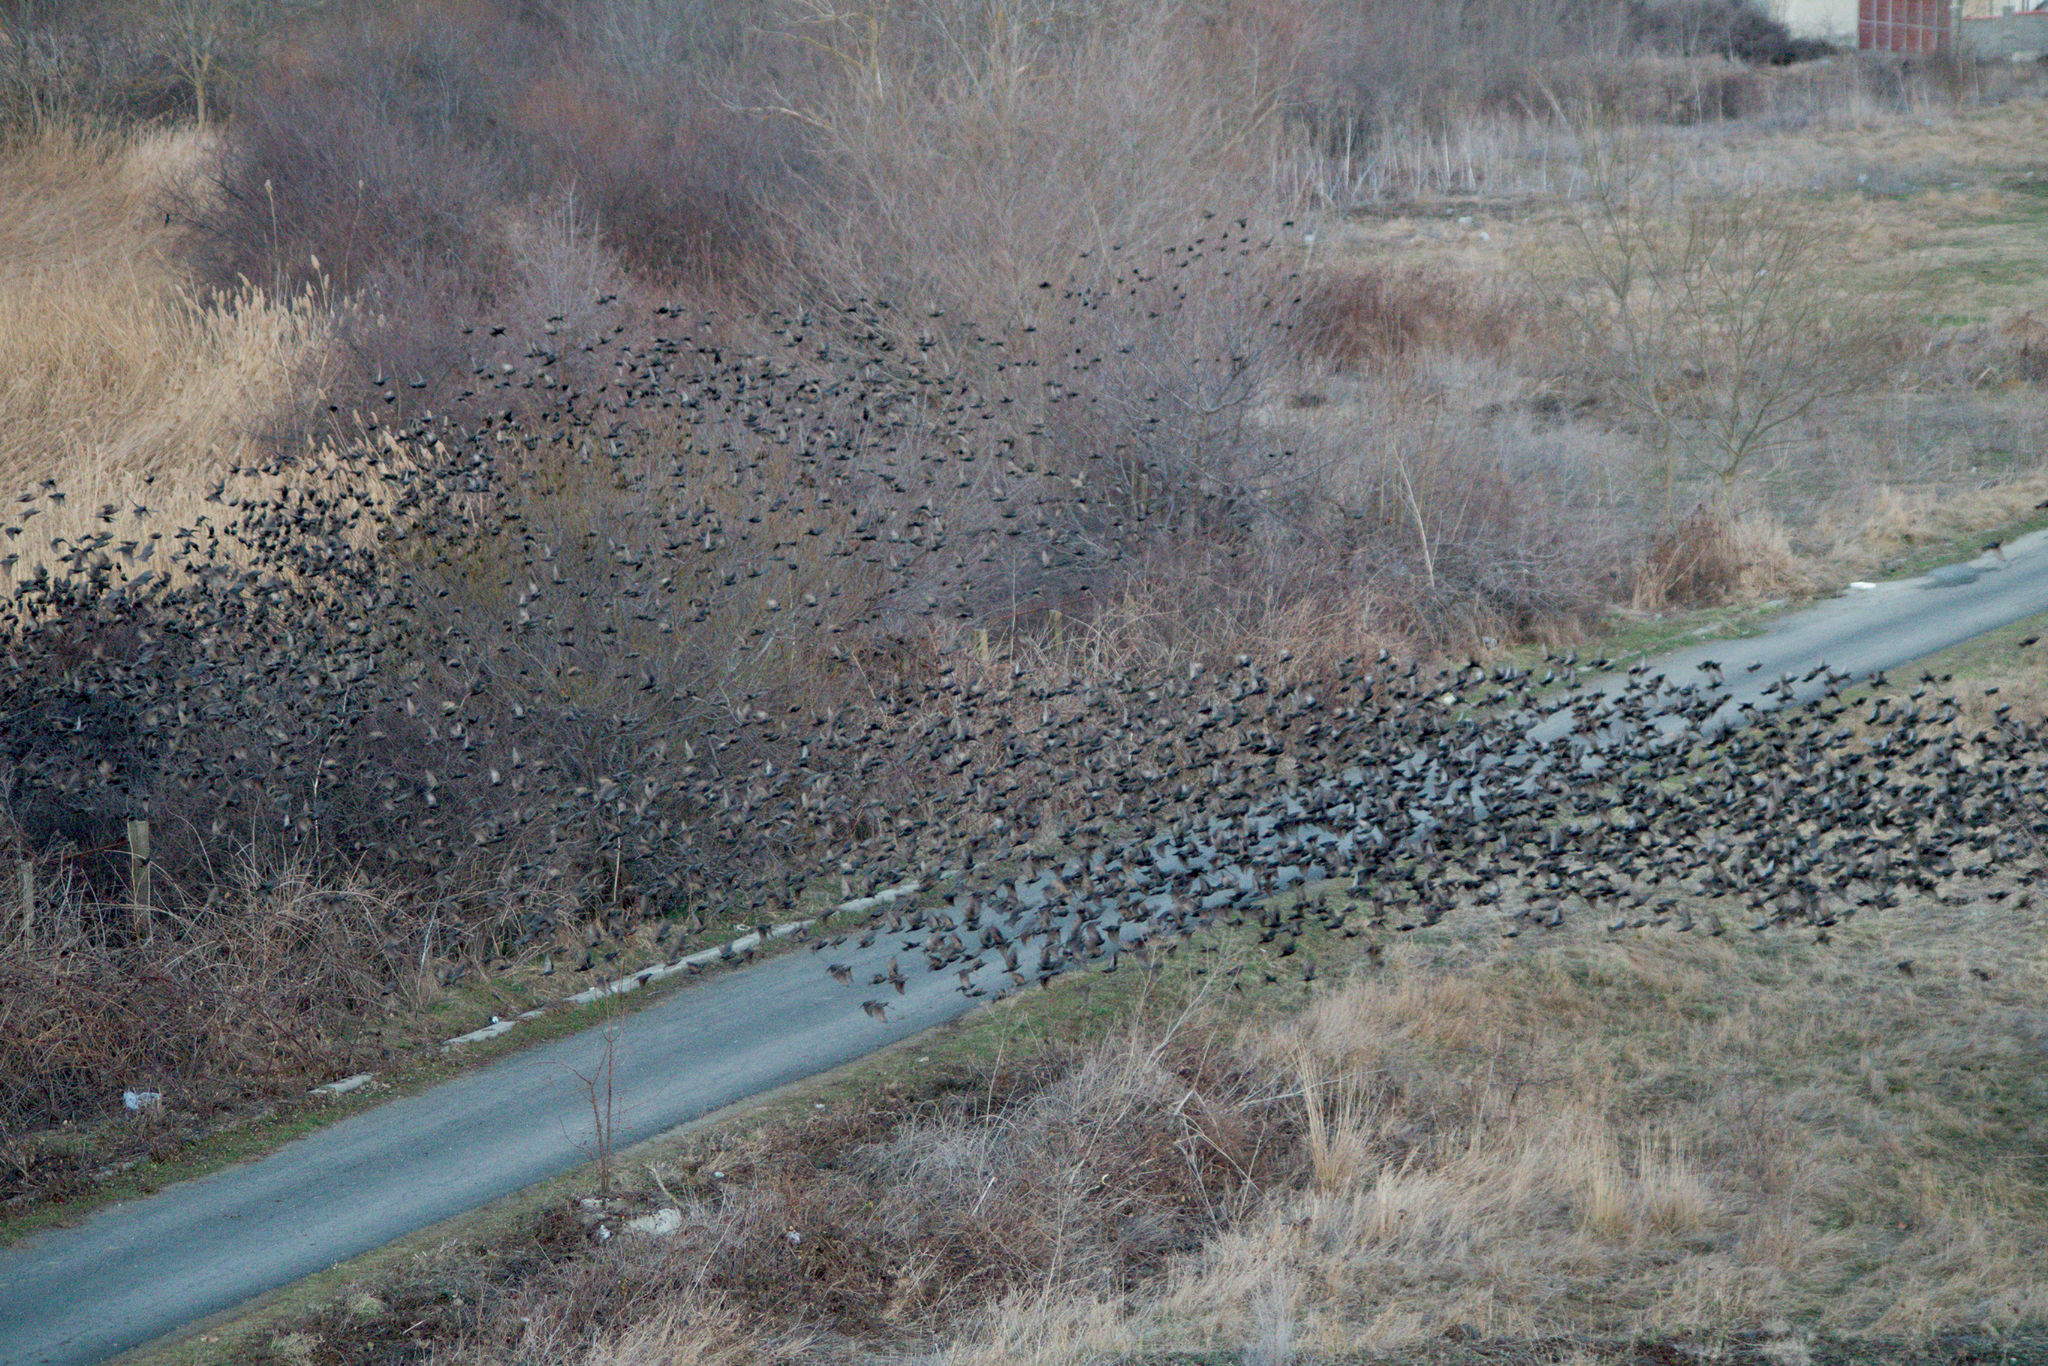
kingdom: Animalia
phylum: Chordata
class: Aves
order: Passeriformes
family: Sturnidae
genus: Sturnus
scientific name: Sturnus vulgaris
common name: Common starling
